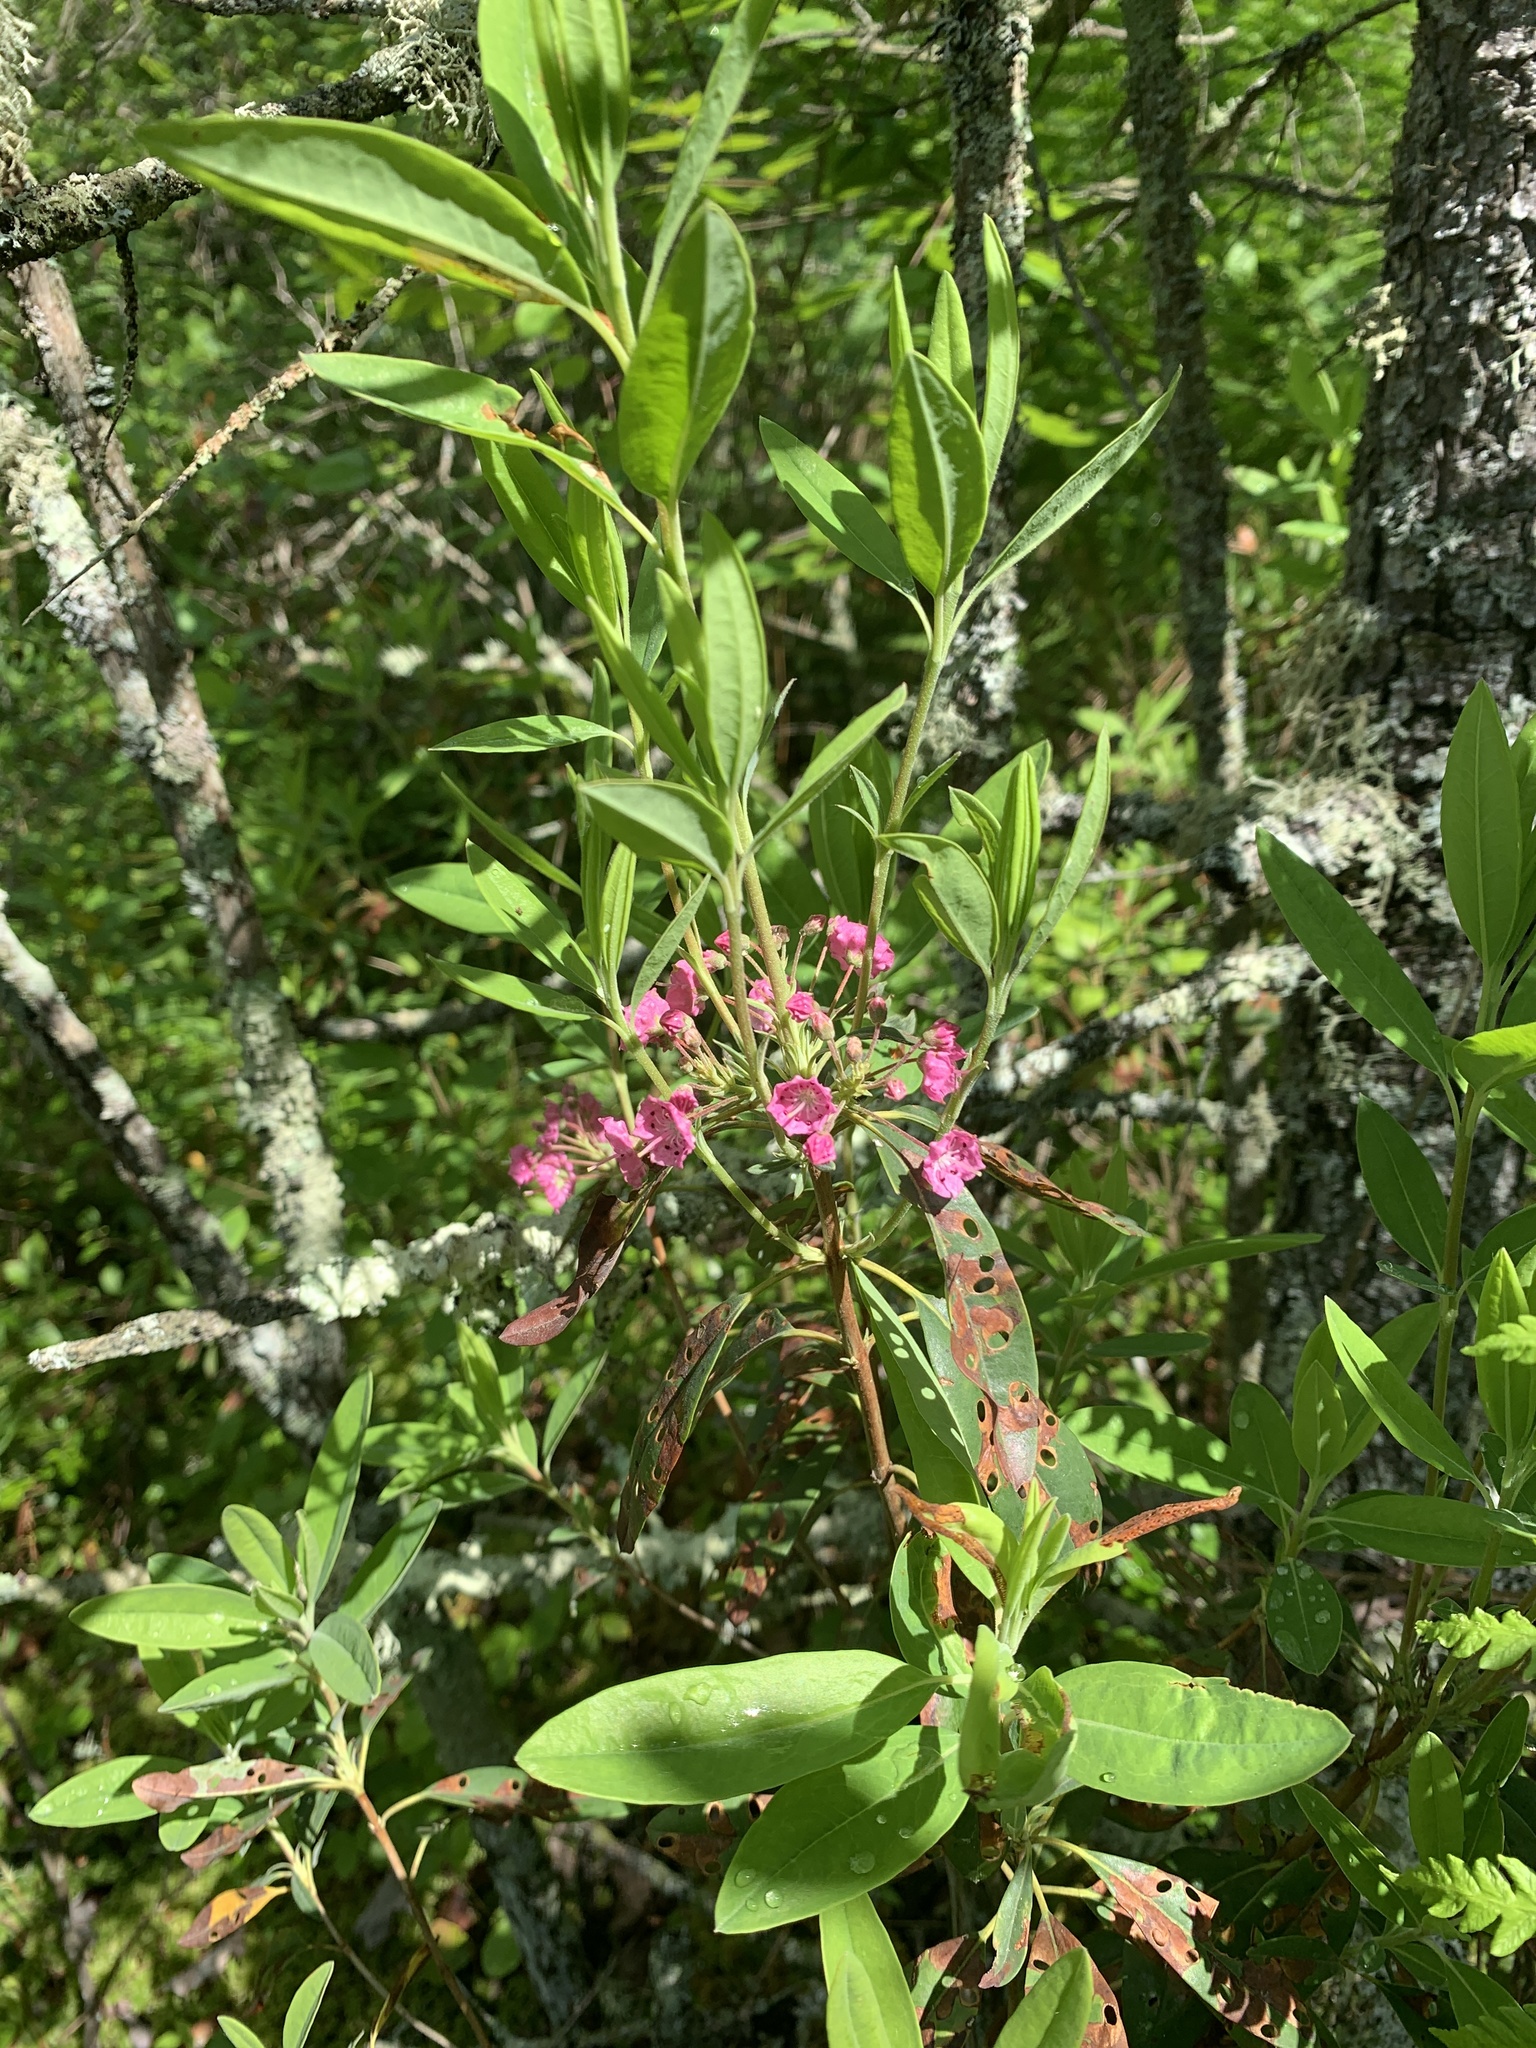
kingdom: Plantae
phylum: Tracheophyta
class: Magnoliopsida
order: Ericales
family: Ericaceae
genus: Kalmia
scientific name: Kalmia angustifolia
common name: Sheep-laurel
